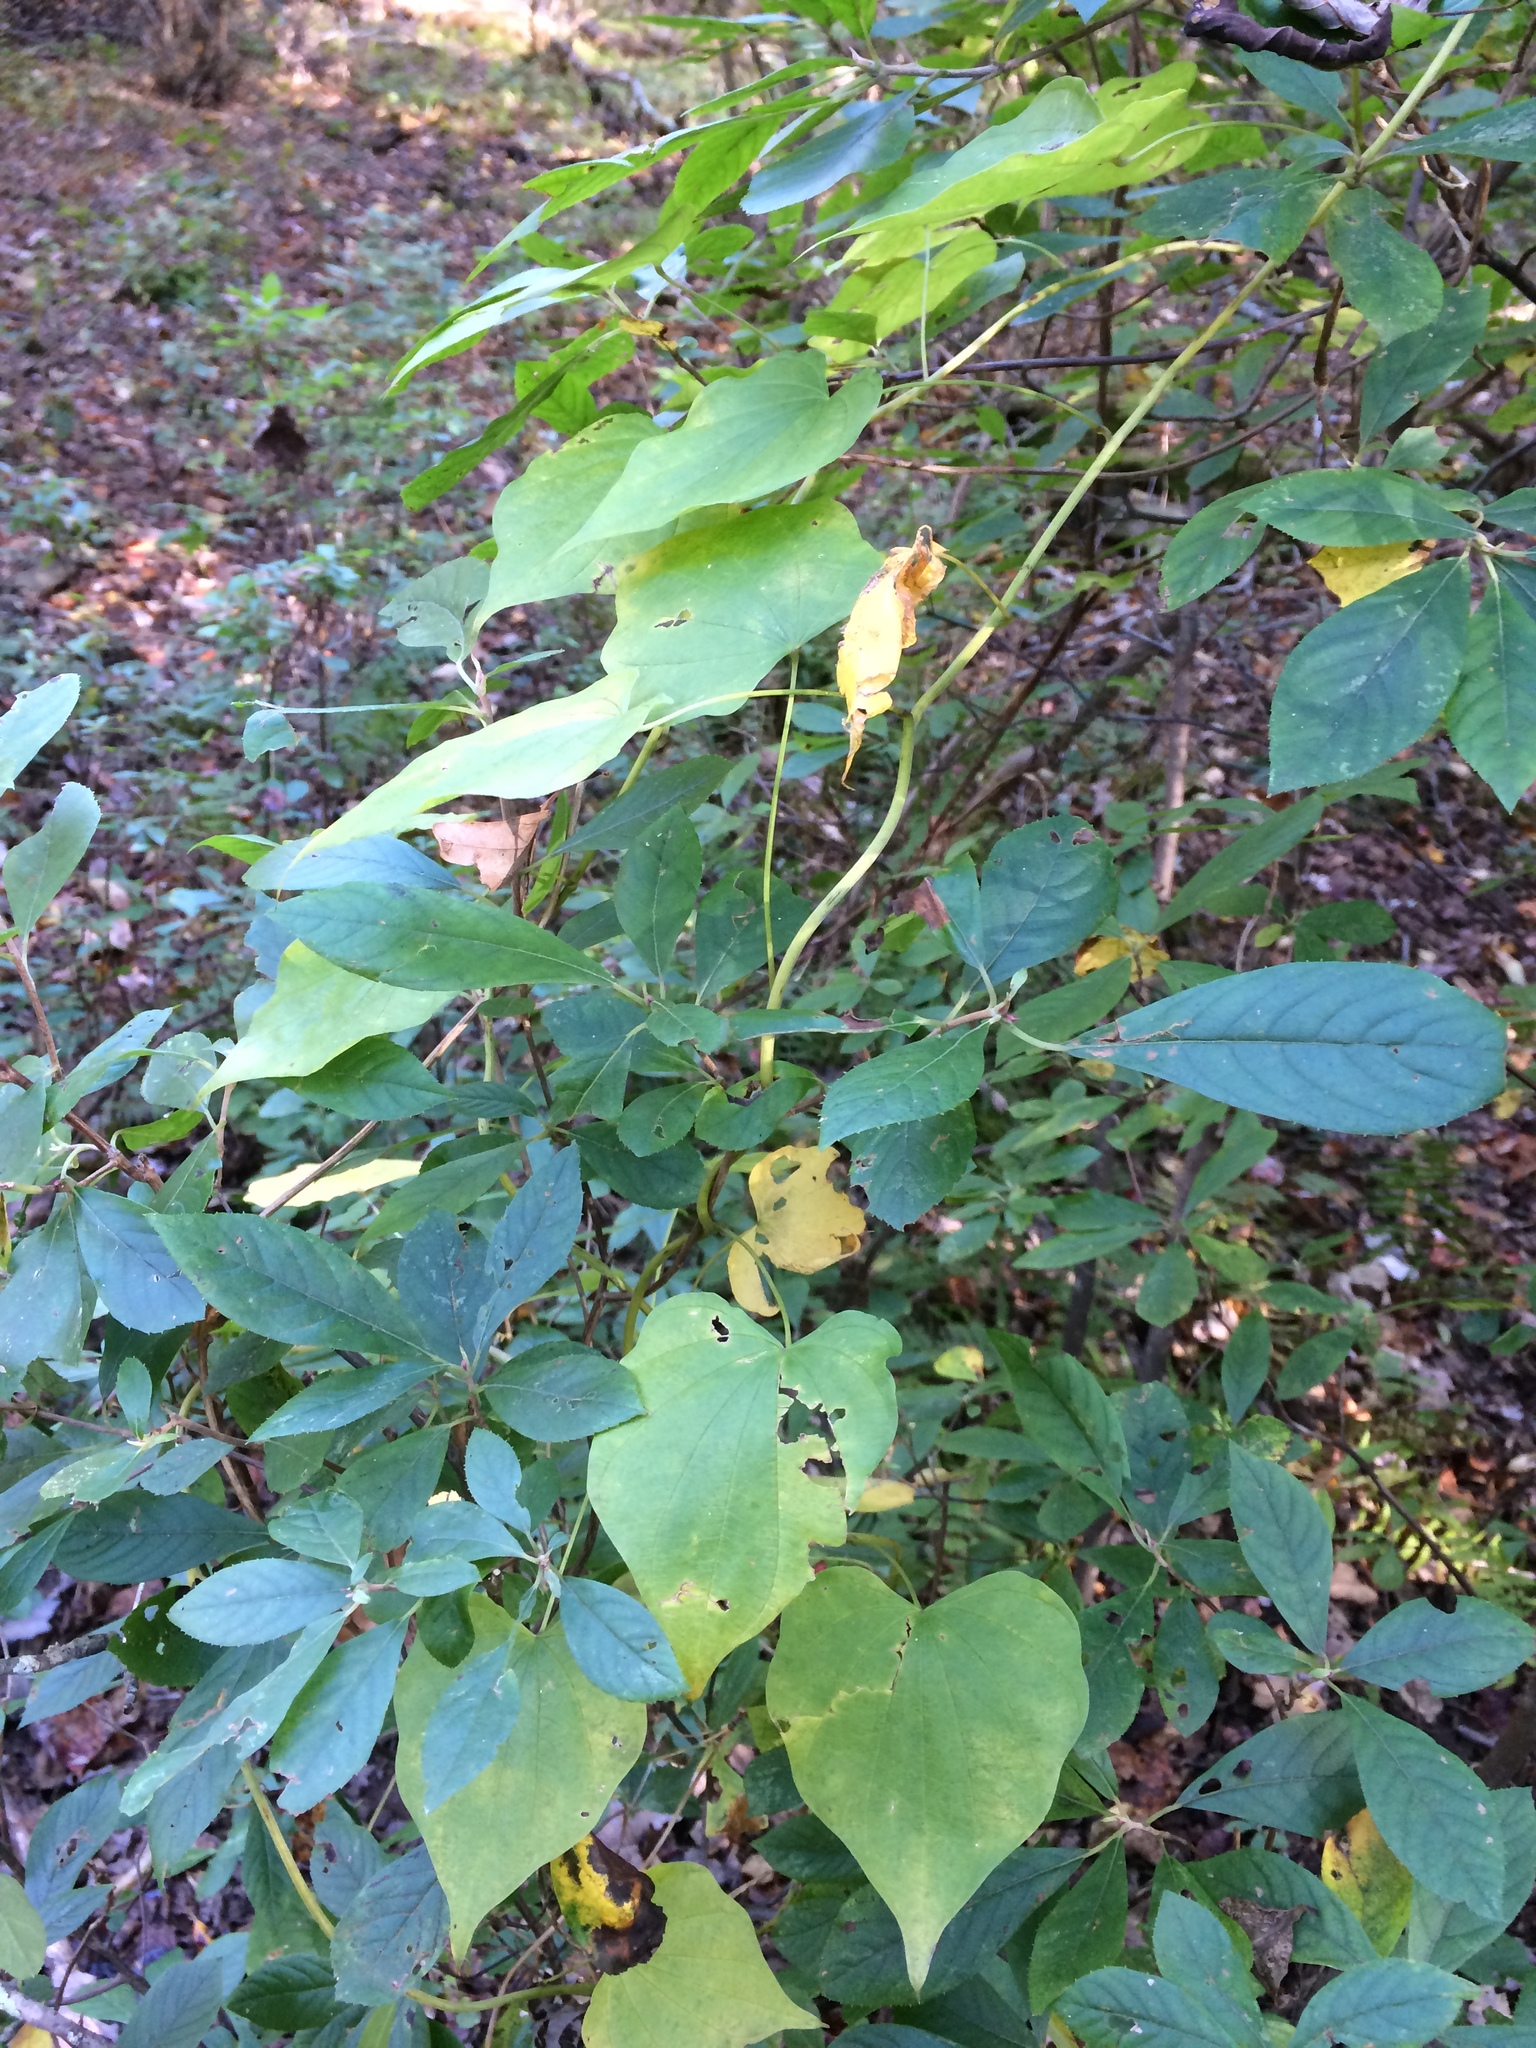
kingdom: Plantae
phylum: Tracheophyta
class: Liliopsida
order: Dioscoreales
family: Dioscoreaceae
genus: Dioscorea
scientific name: Dioscorea villosa
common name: Wild yam
